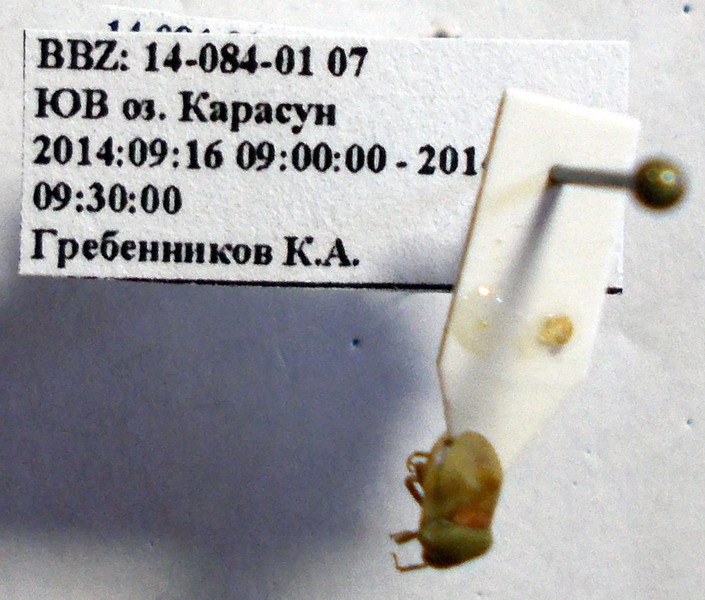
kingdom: Animalia
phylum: Arthropoda
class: Insecta
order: Hemiptera
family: Pentatomidae
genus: Tarisa
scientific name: Tarisa elevata
